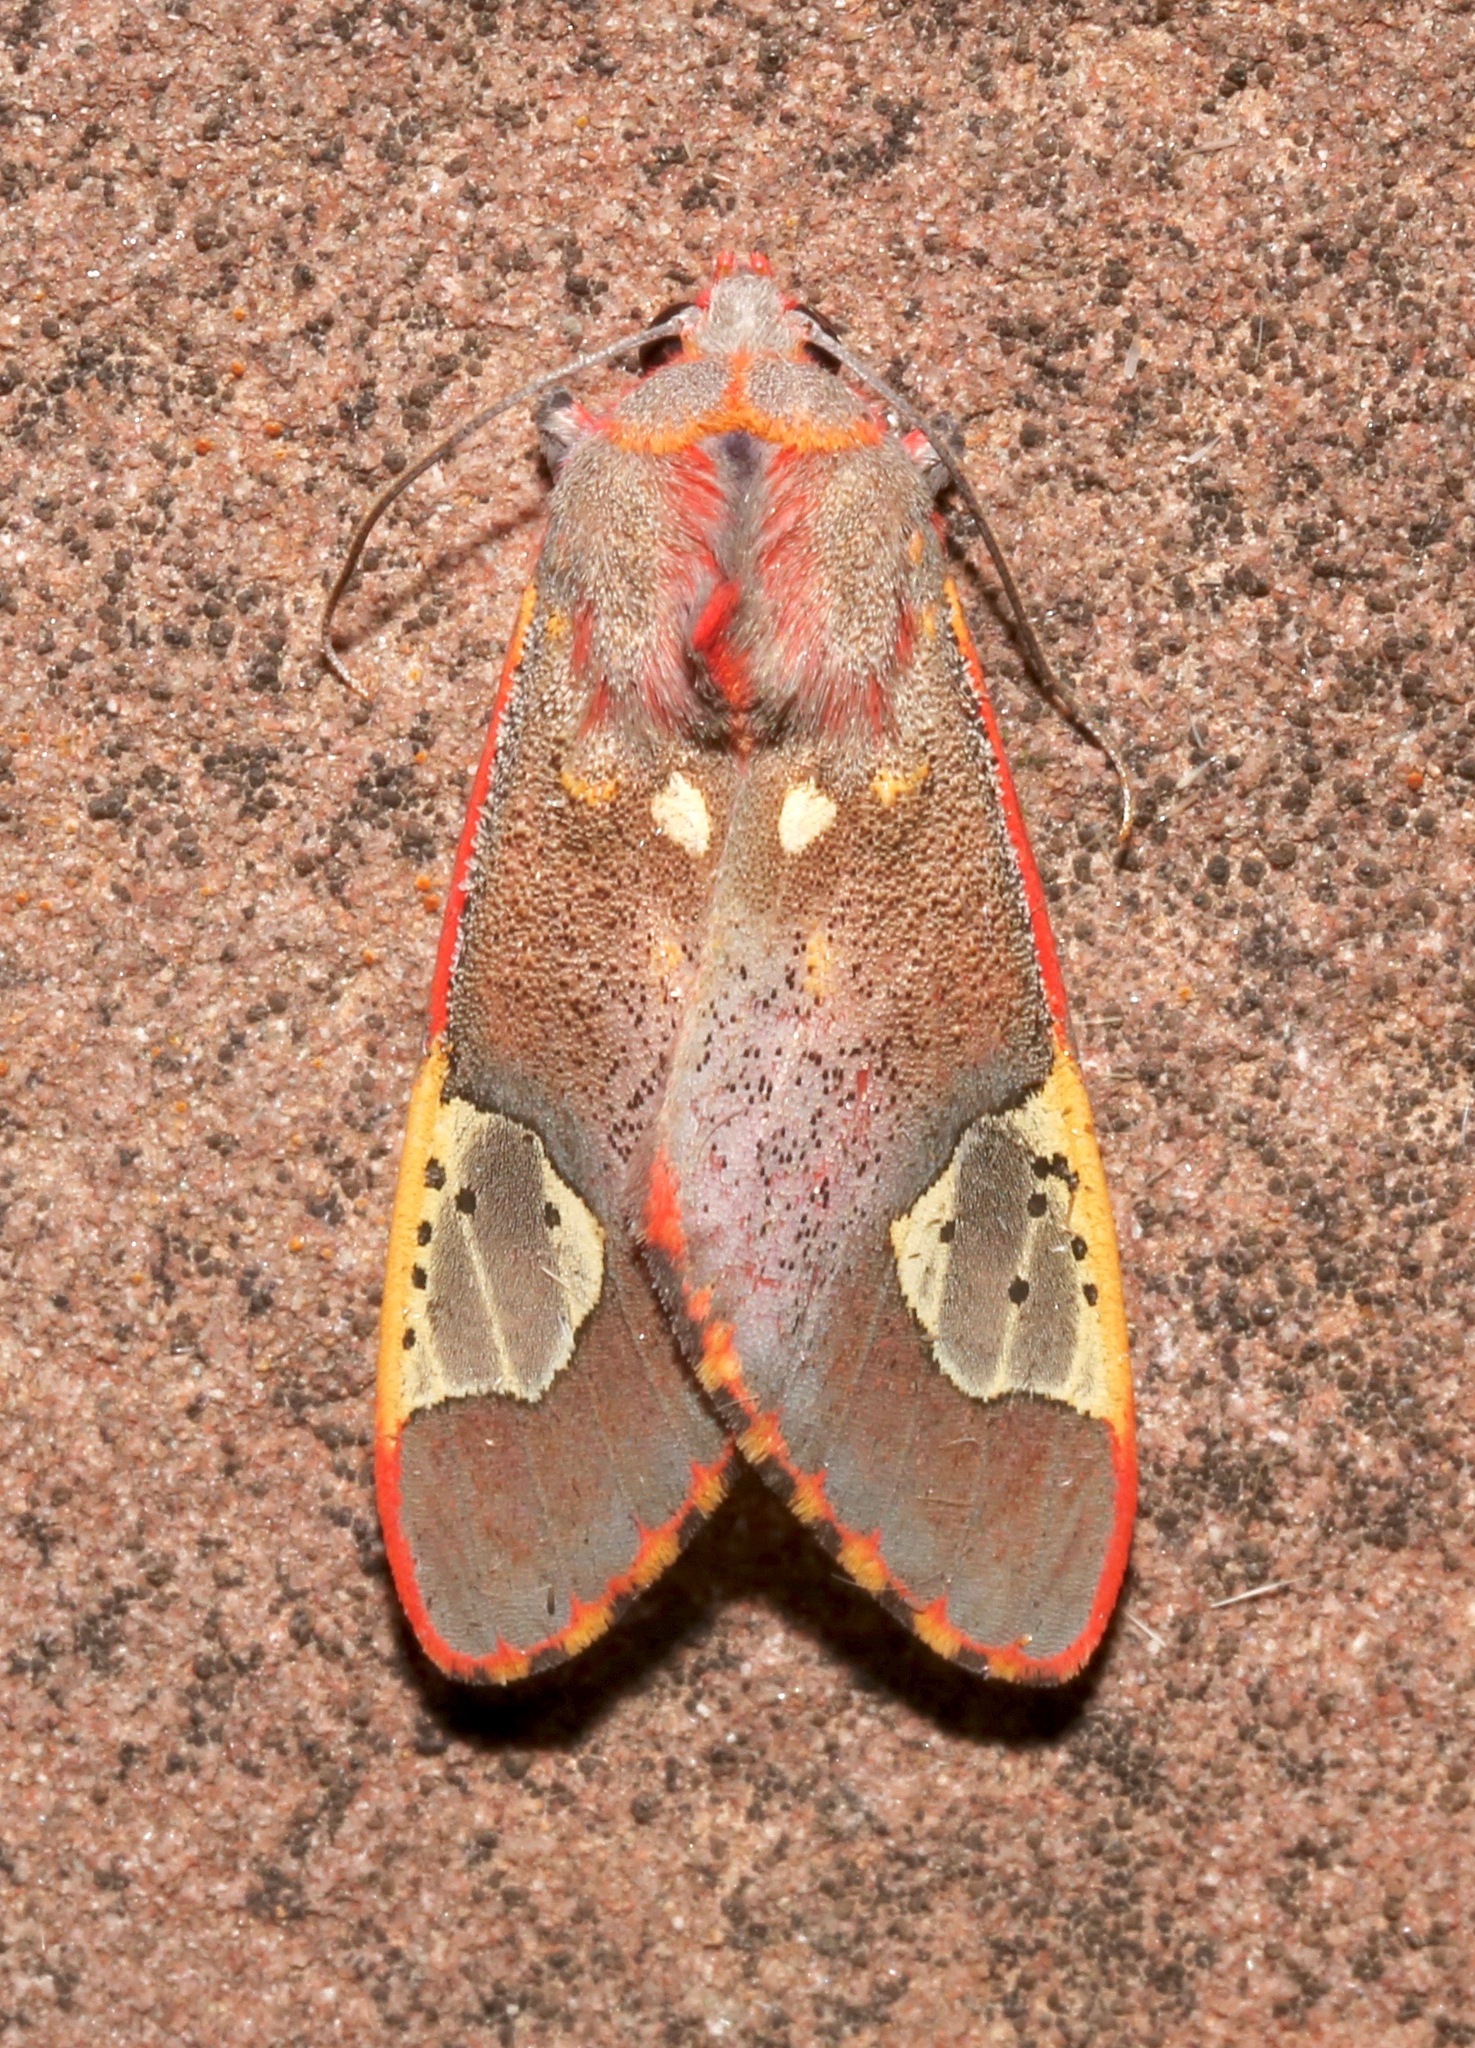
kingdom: Animalia
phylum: Arthropoda
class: Insecta
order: Lepidoptera
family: Erebidae
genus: Bertholdia
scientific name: Bertholdia trigona
